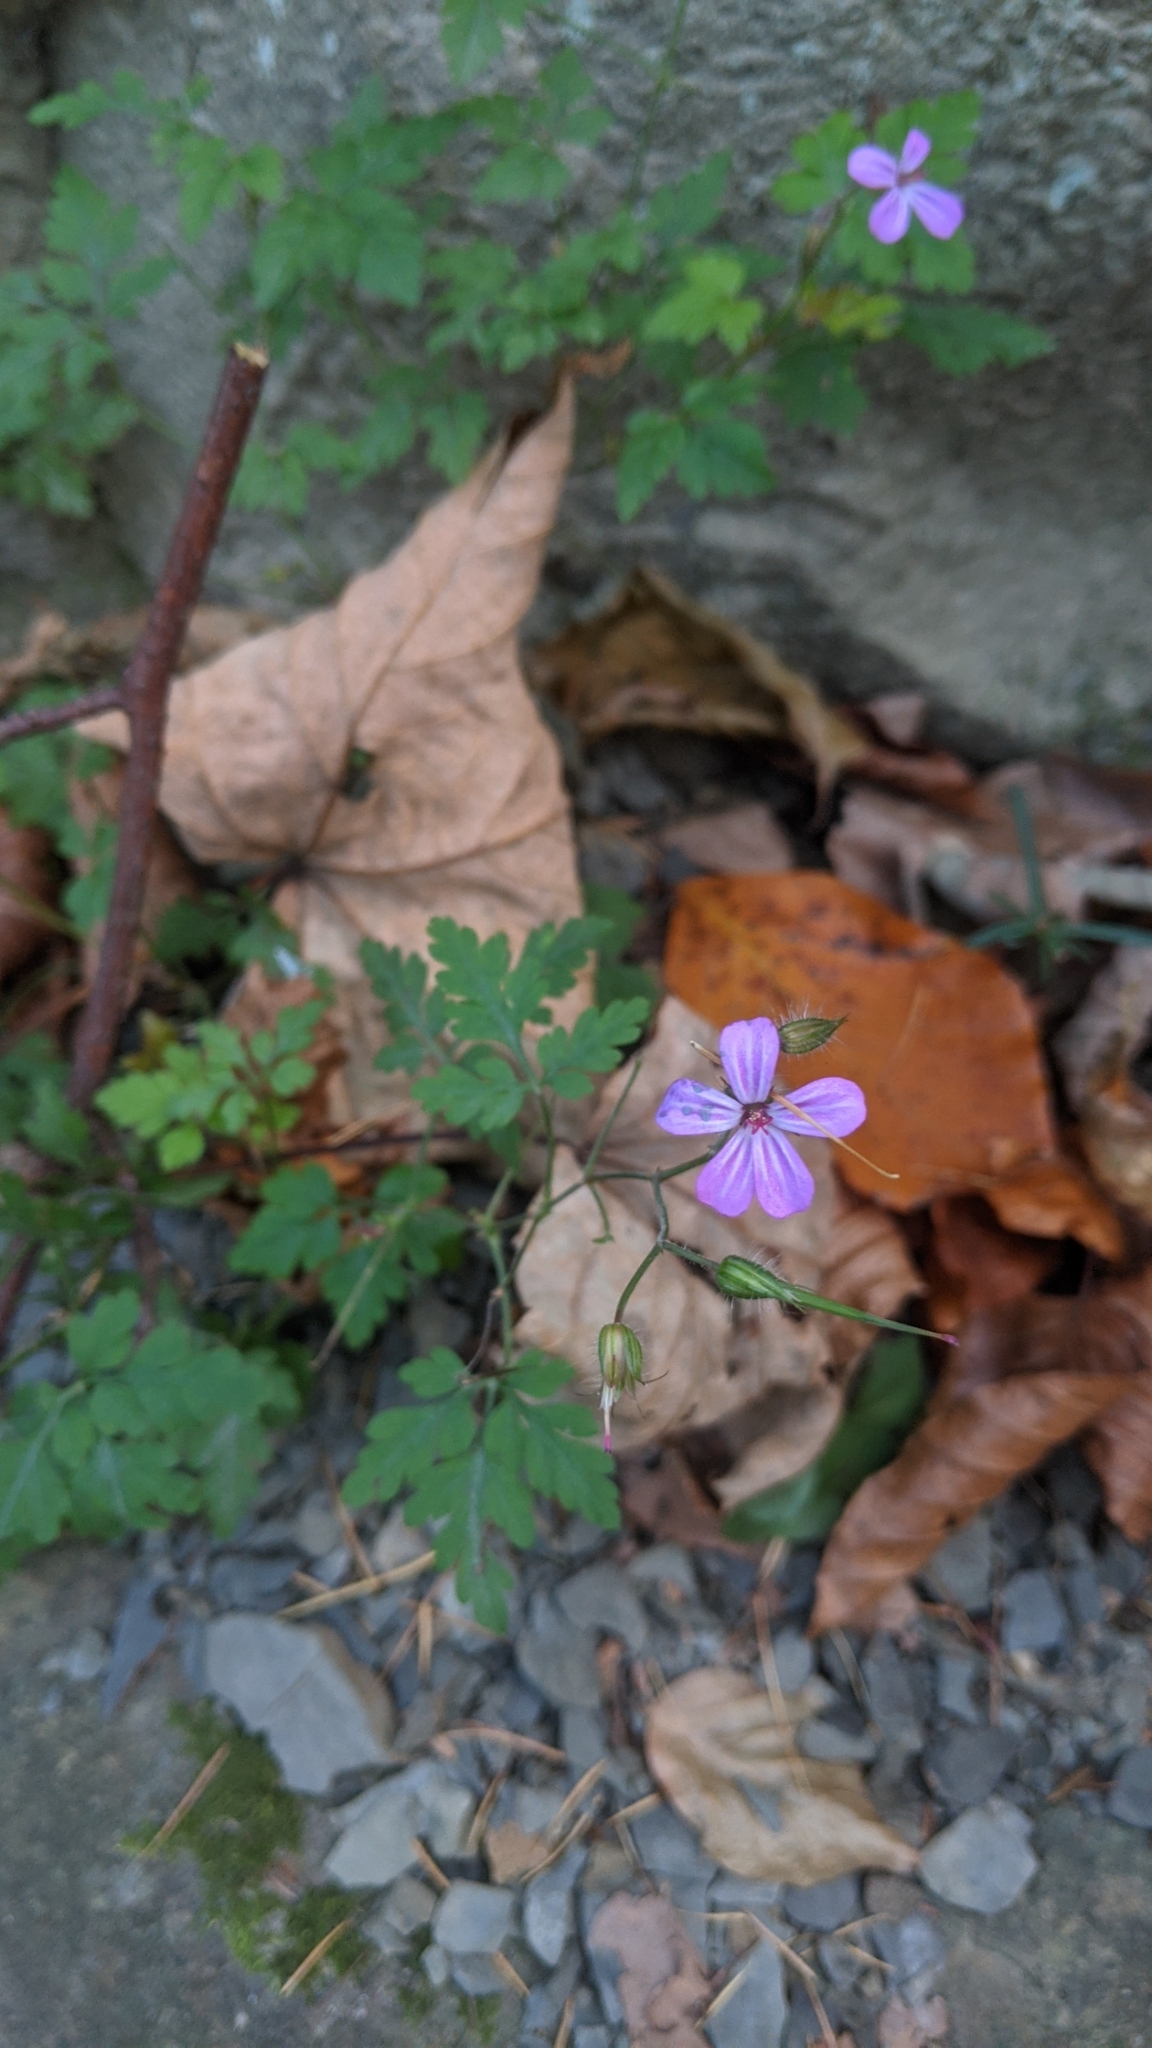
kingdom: Plantae
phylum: Tracheophyta
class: Magnoliopsida
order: Geraniales
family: Geraniaceae
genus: Geranium
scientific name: Geranium robertianum
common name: Herb-robert
